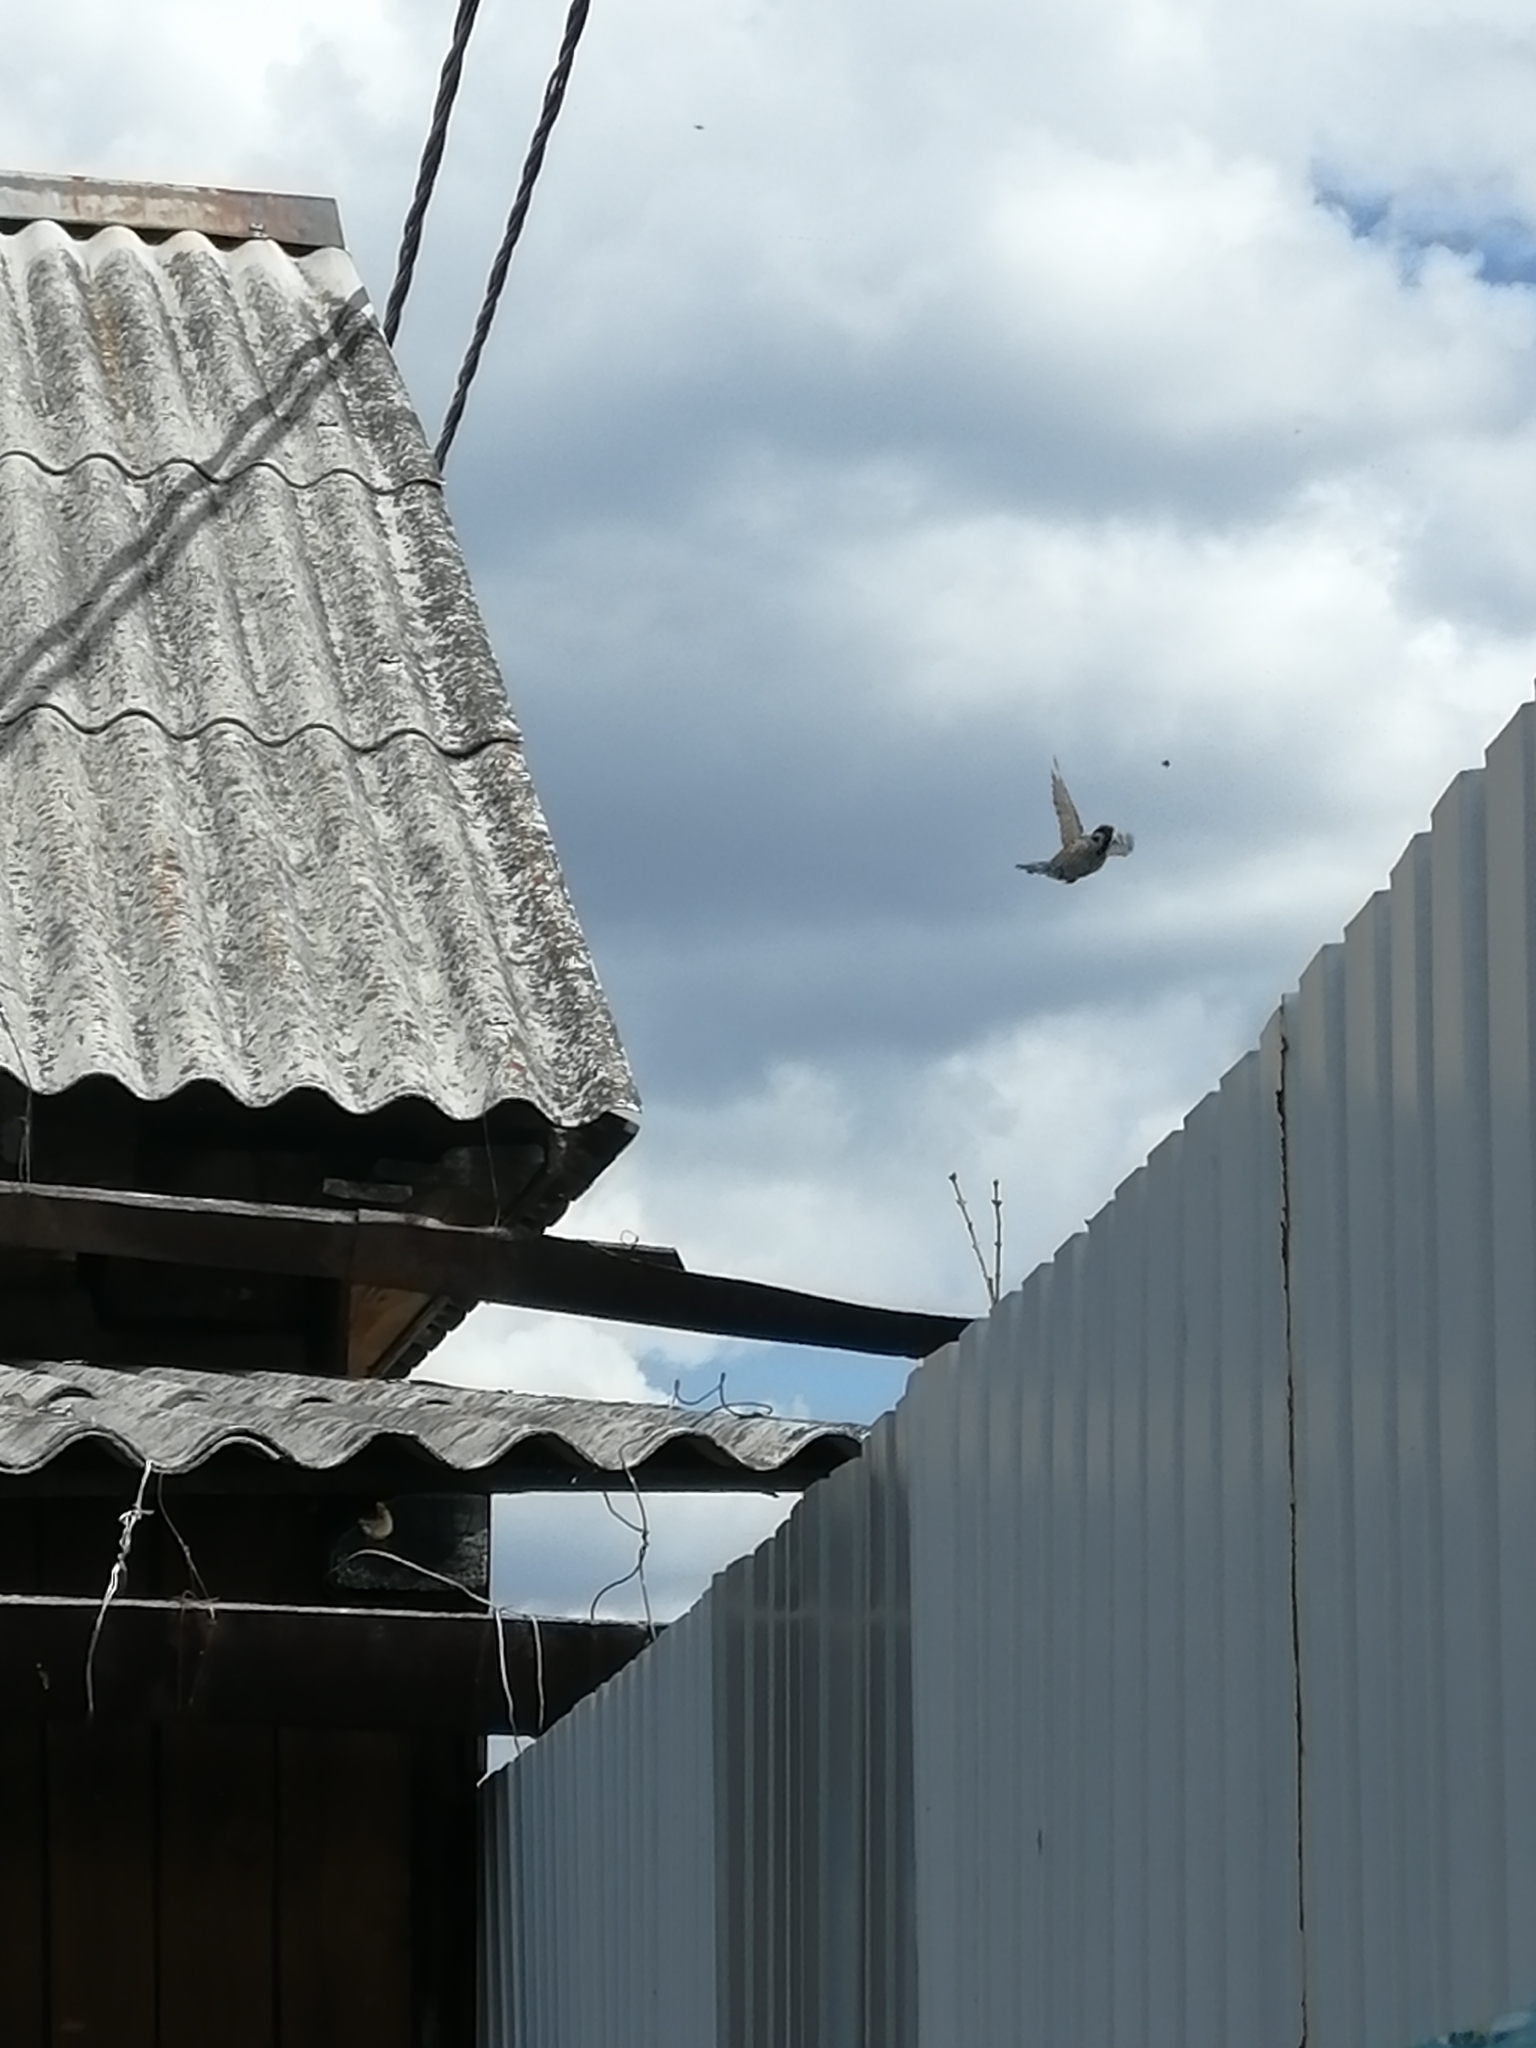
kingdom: Animalia
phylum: Chordata
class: Aves
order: Passeriformes
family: Passeridae
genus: Passer
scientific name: Passer montanus
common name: Eurasian tree sparrow
